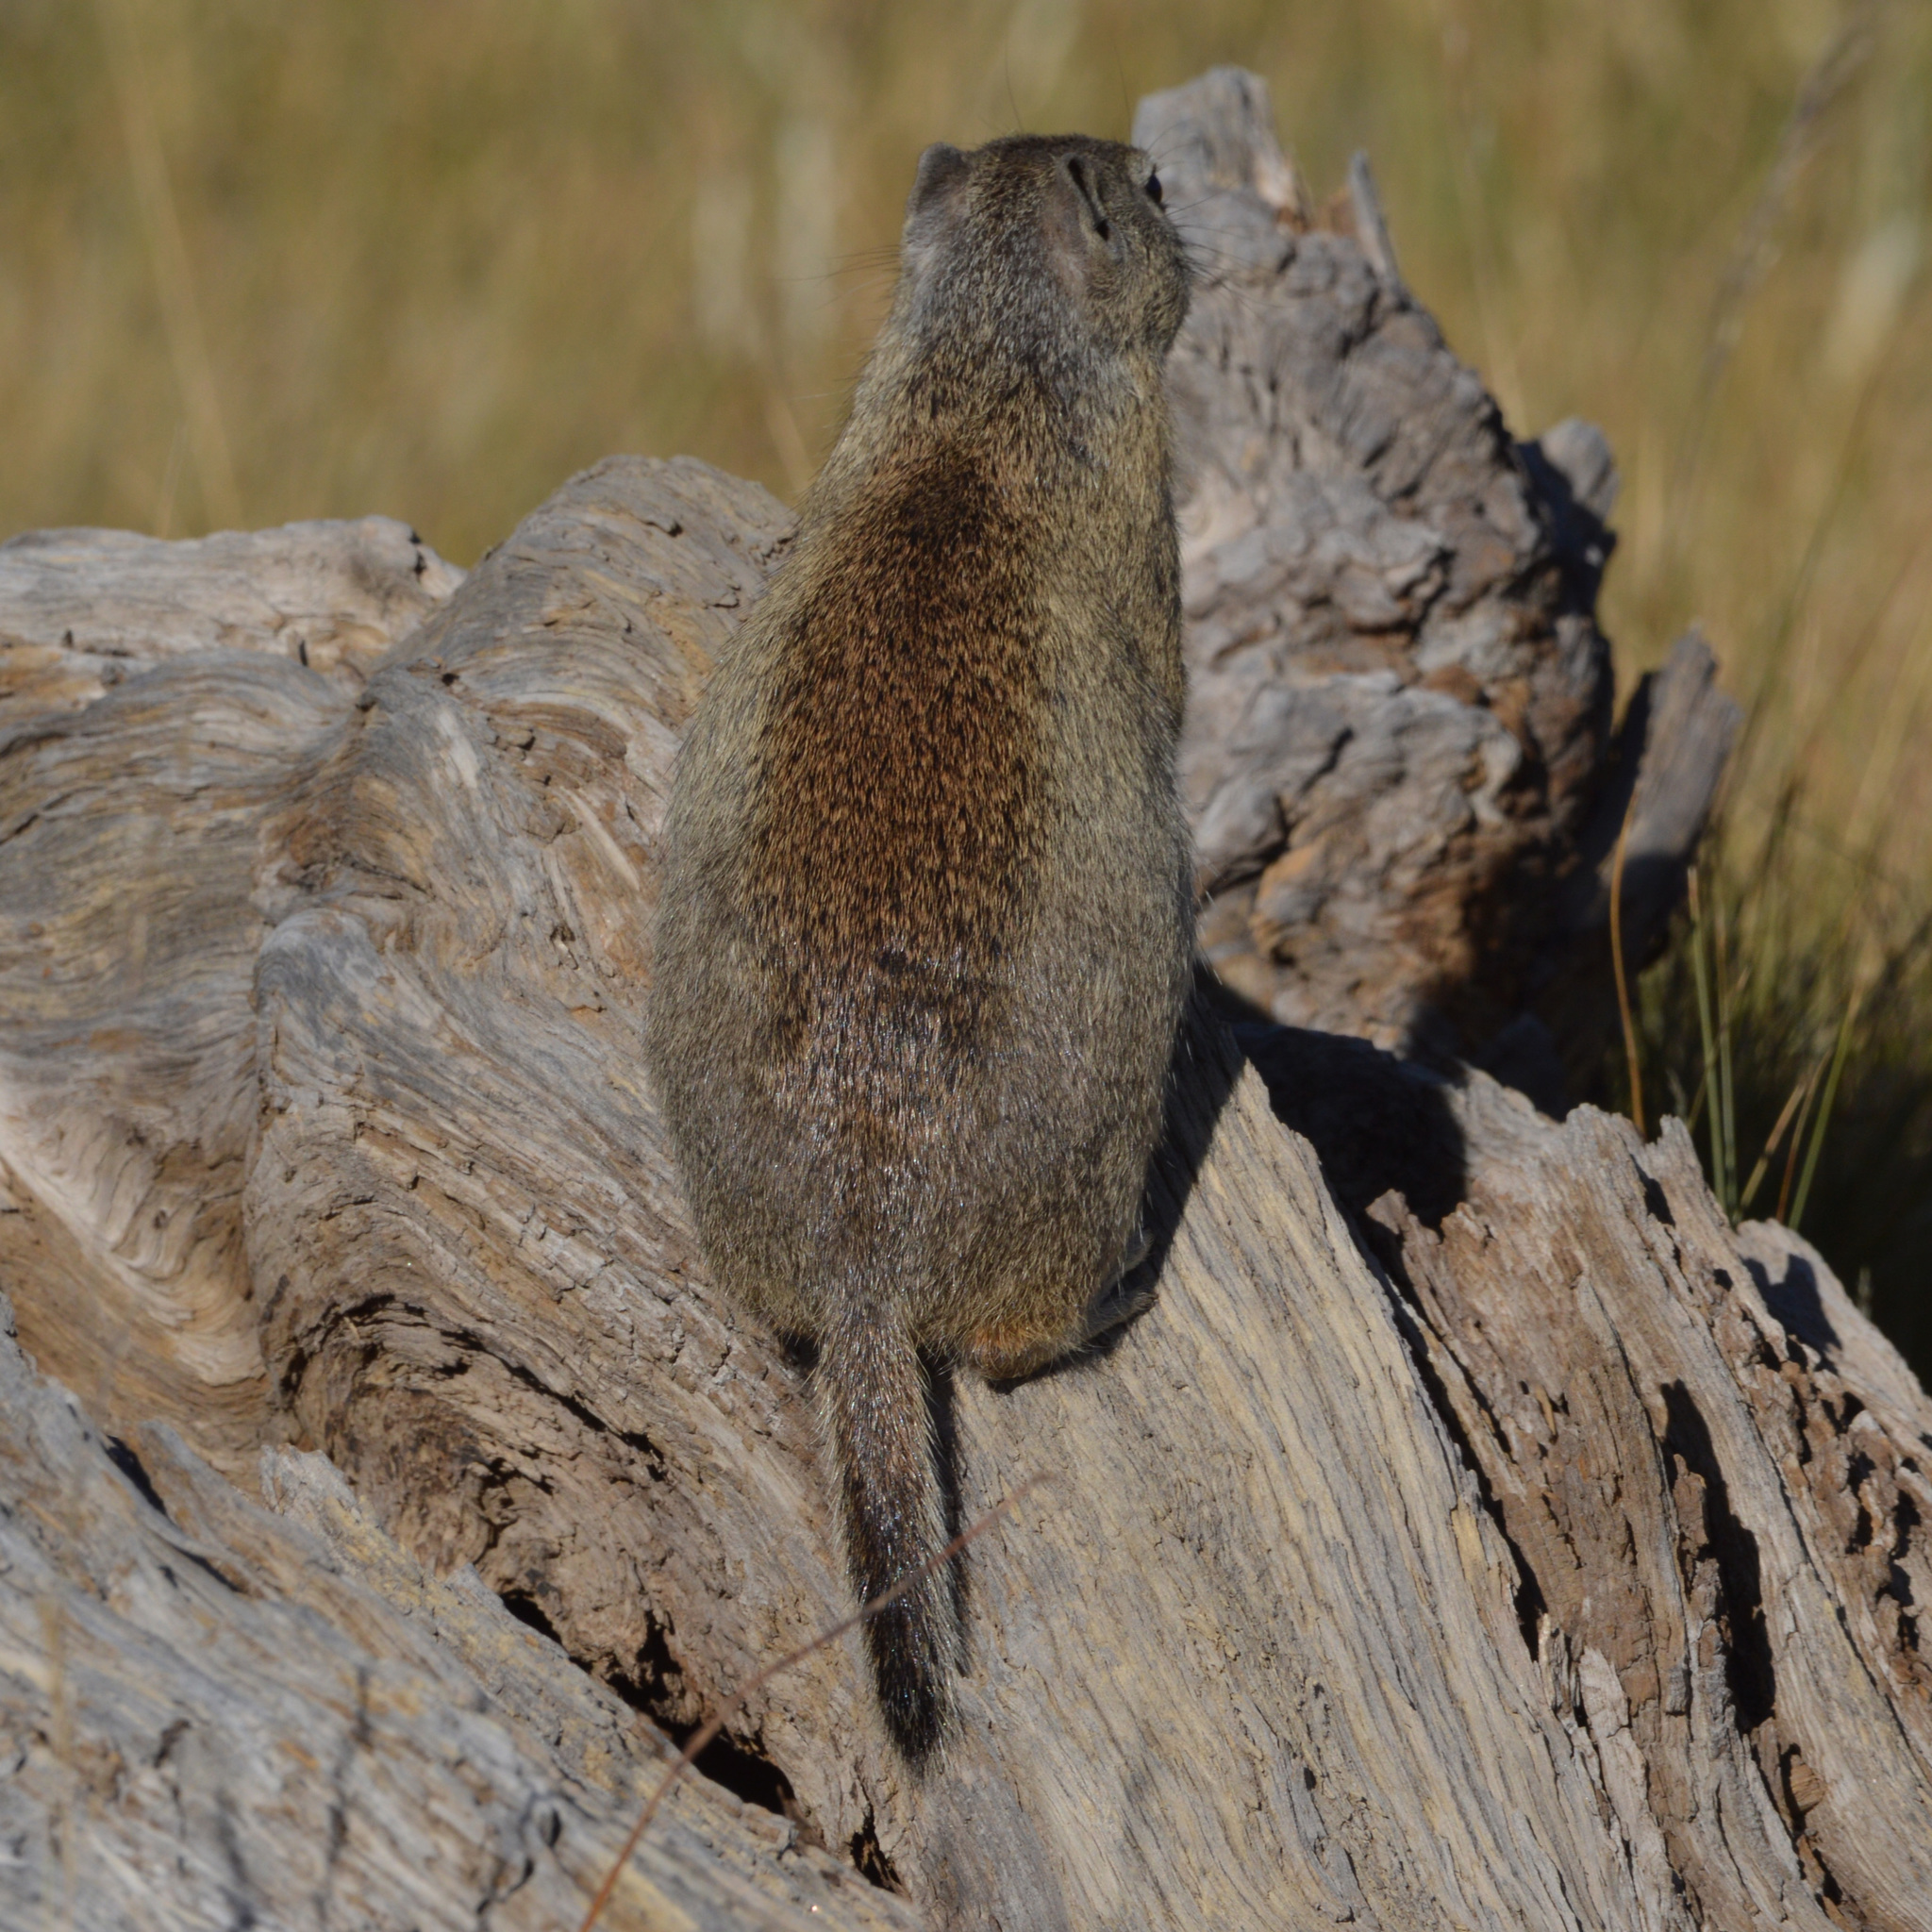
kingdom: Animalia
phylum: Chordata
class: Mammalia
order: Rodentia
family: Sciuridae
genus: Urocitellus
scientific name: Urocitellus beldingi
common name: Belding's ground squirrel
